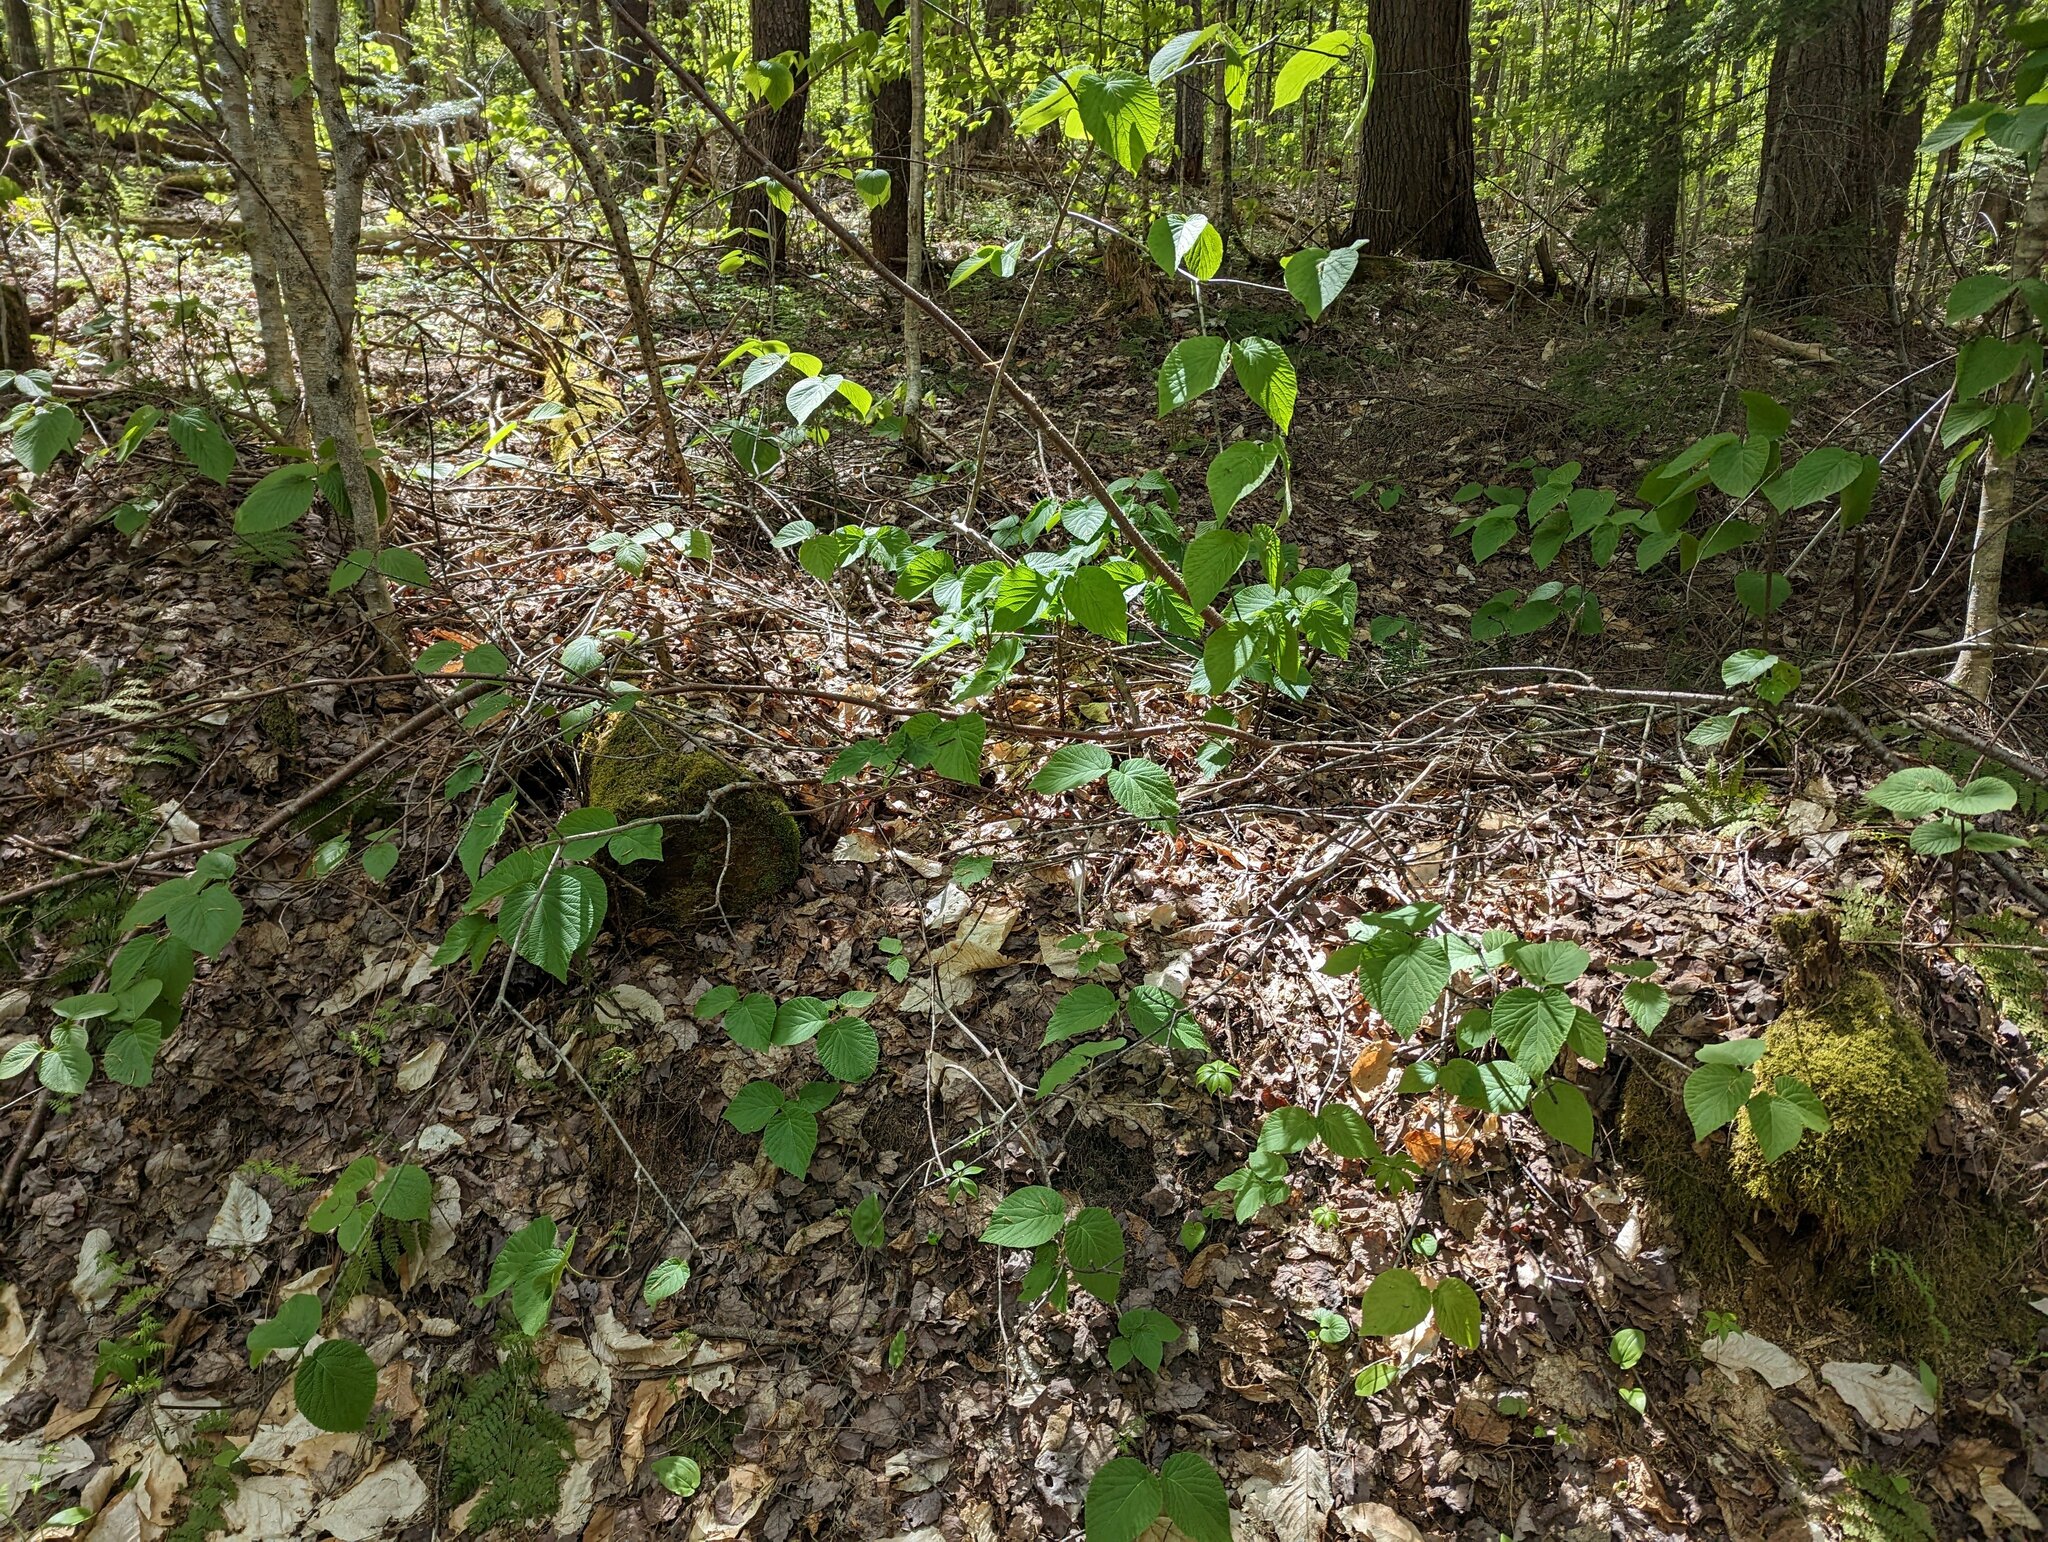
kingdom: Plantae
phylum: Tracheophyta
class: Magnoliopsida
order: Dipsacales
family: Viburnaceae
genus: Viburnum
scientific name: Viburnum lantanoides
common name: Hobblebush
